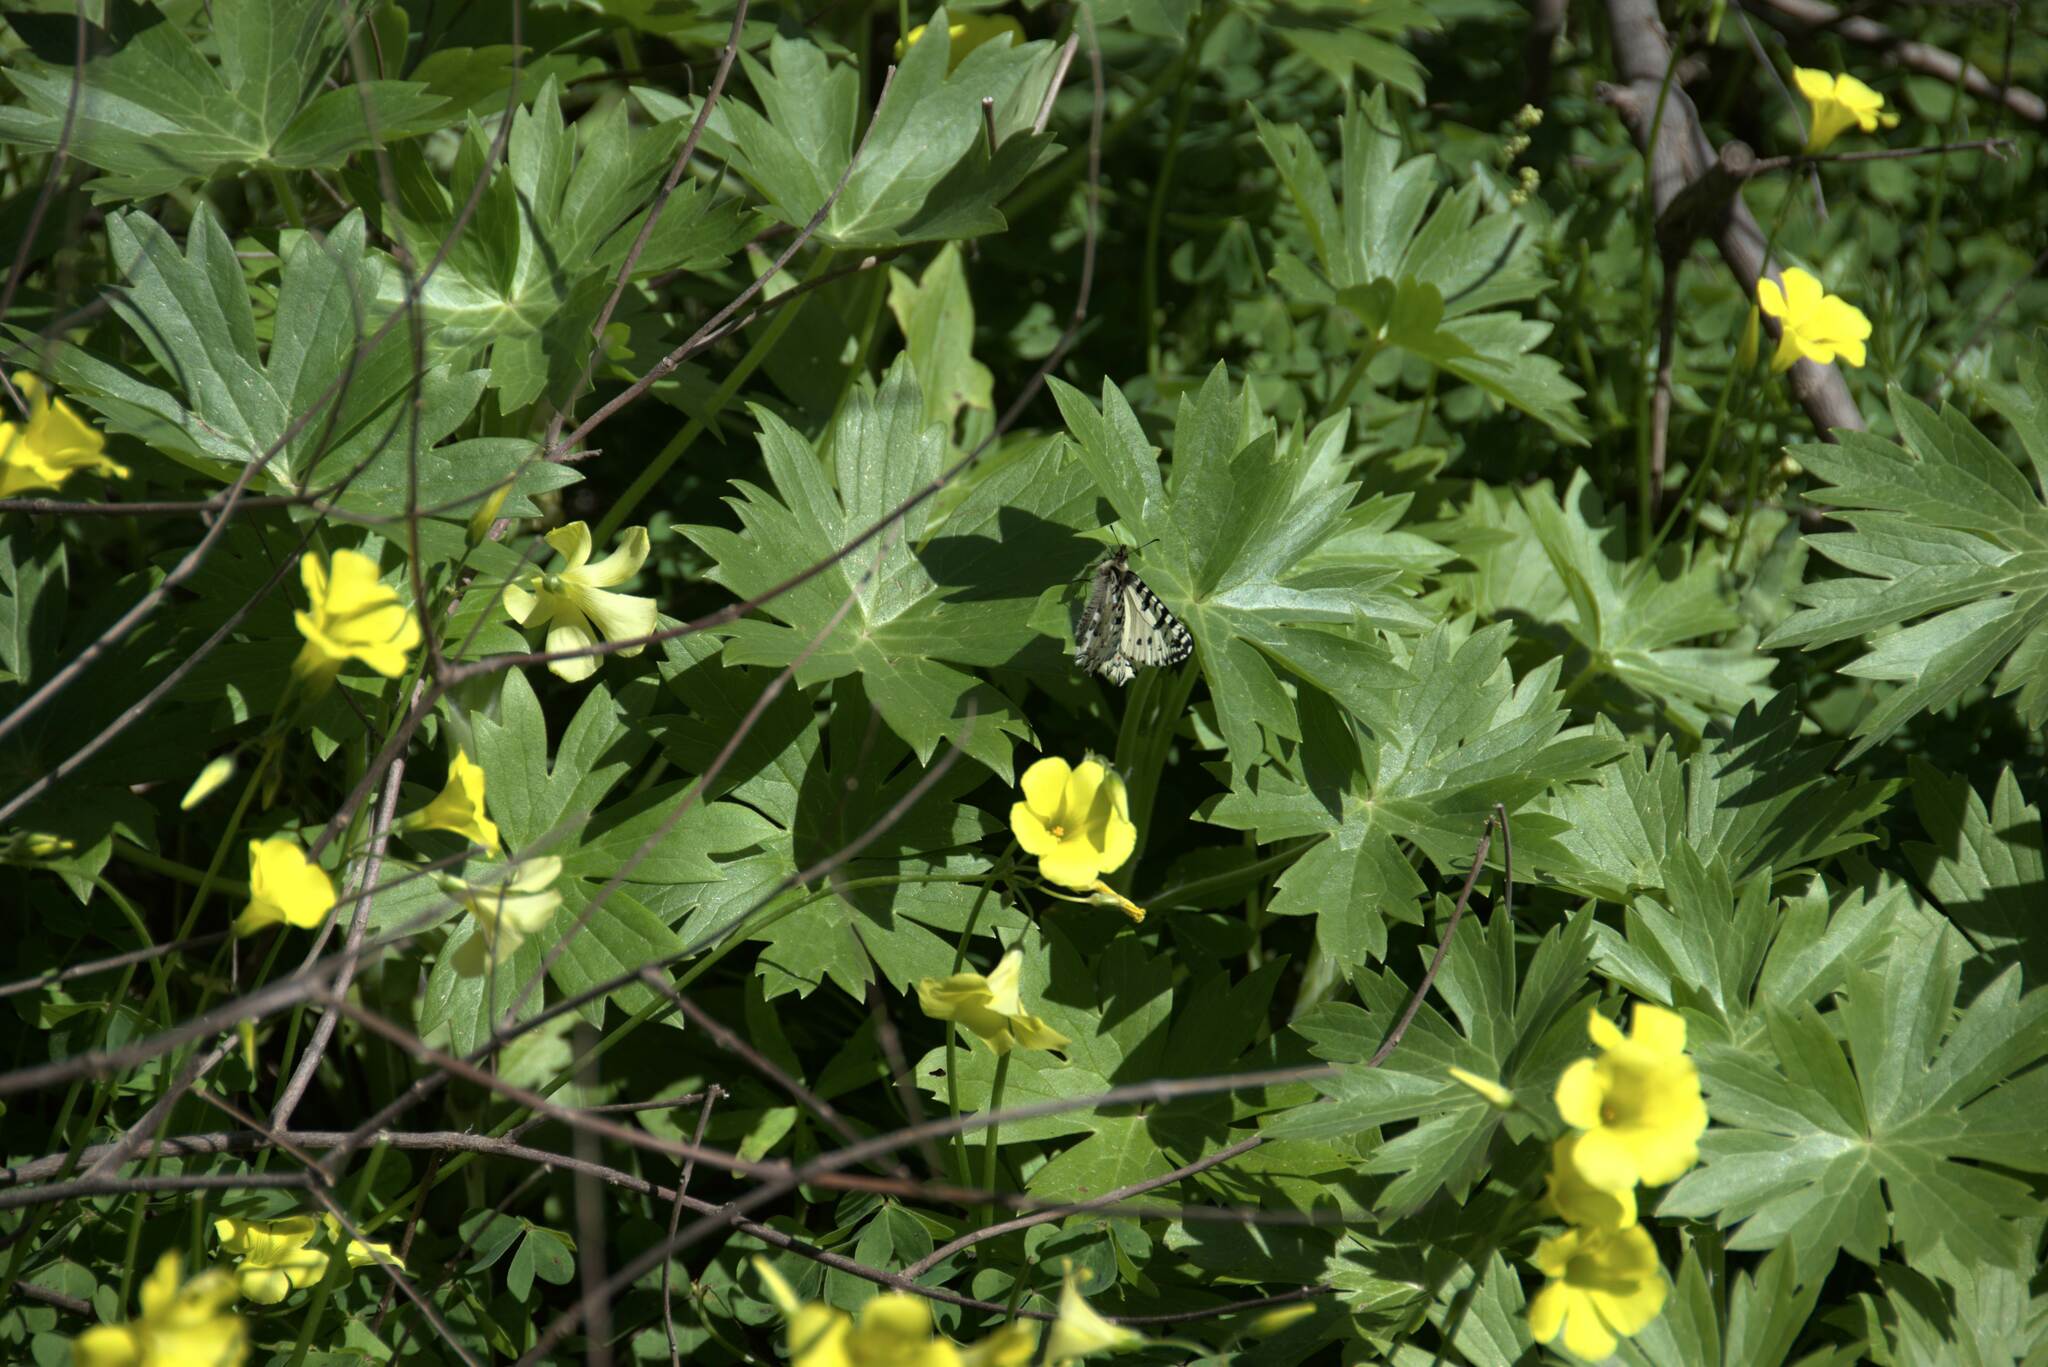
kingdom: Animalia
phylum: Arthropoda
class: Insecta
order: Lepidoptera
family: Papilionidae
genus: Zerynthia
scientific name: Zerynthia cretica
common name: Cretan festoon
